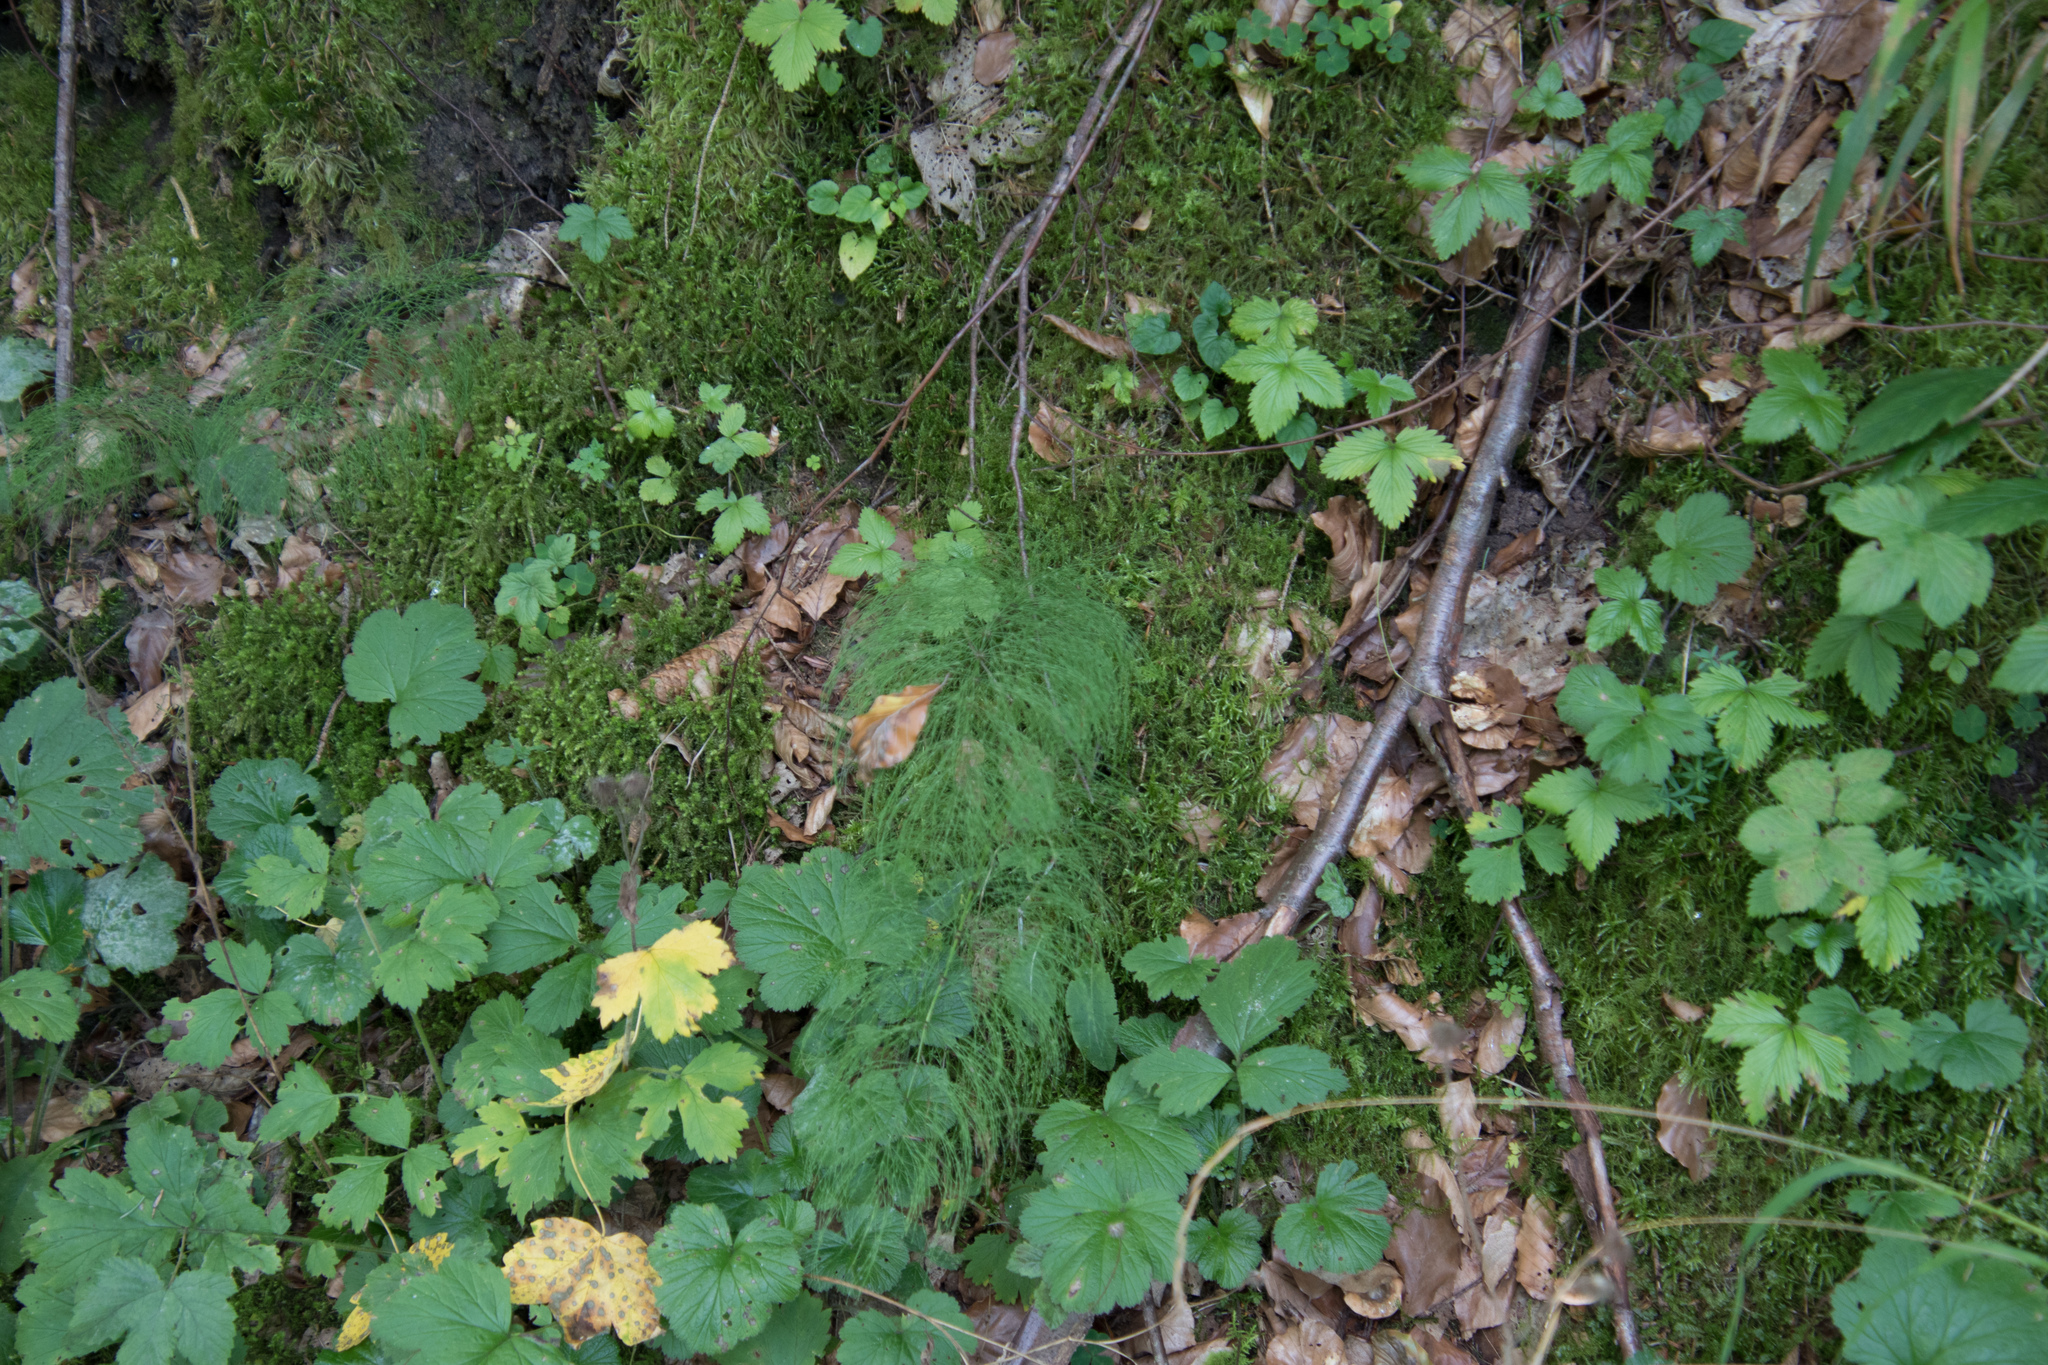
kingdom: Plantae
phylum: Tracheophyta
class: Polypodiopsida
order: Equisetales
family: Equisetaceae
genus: Equisetum
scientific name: Equisetum sylvaticum
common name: Wood horsetail
